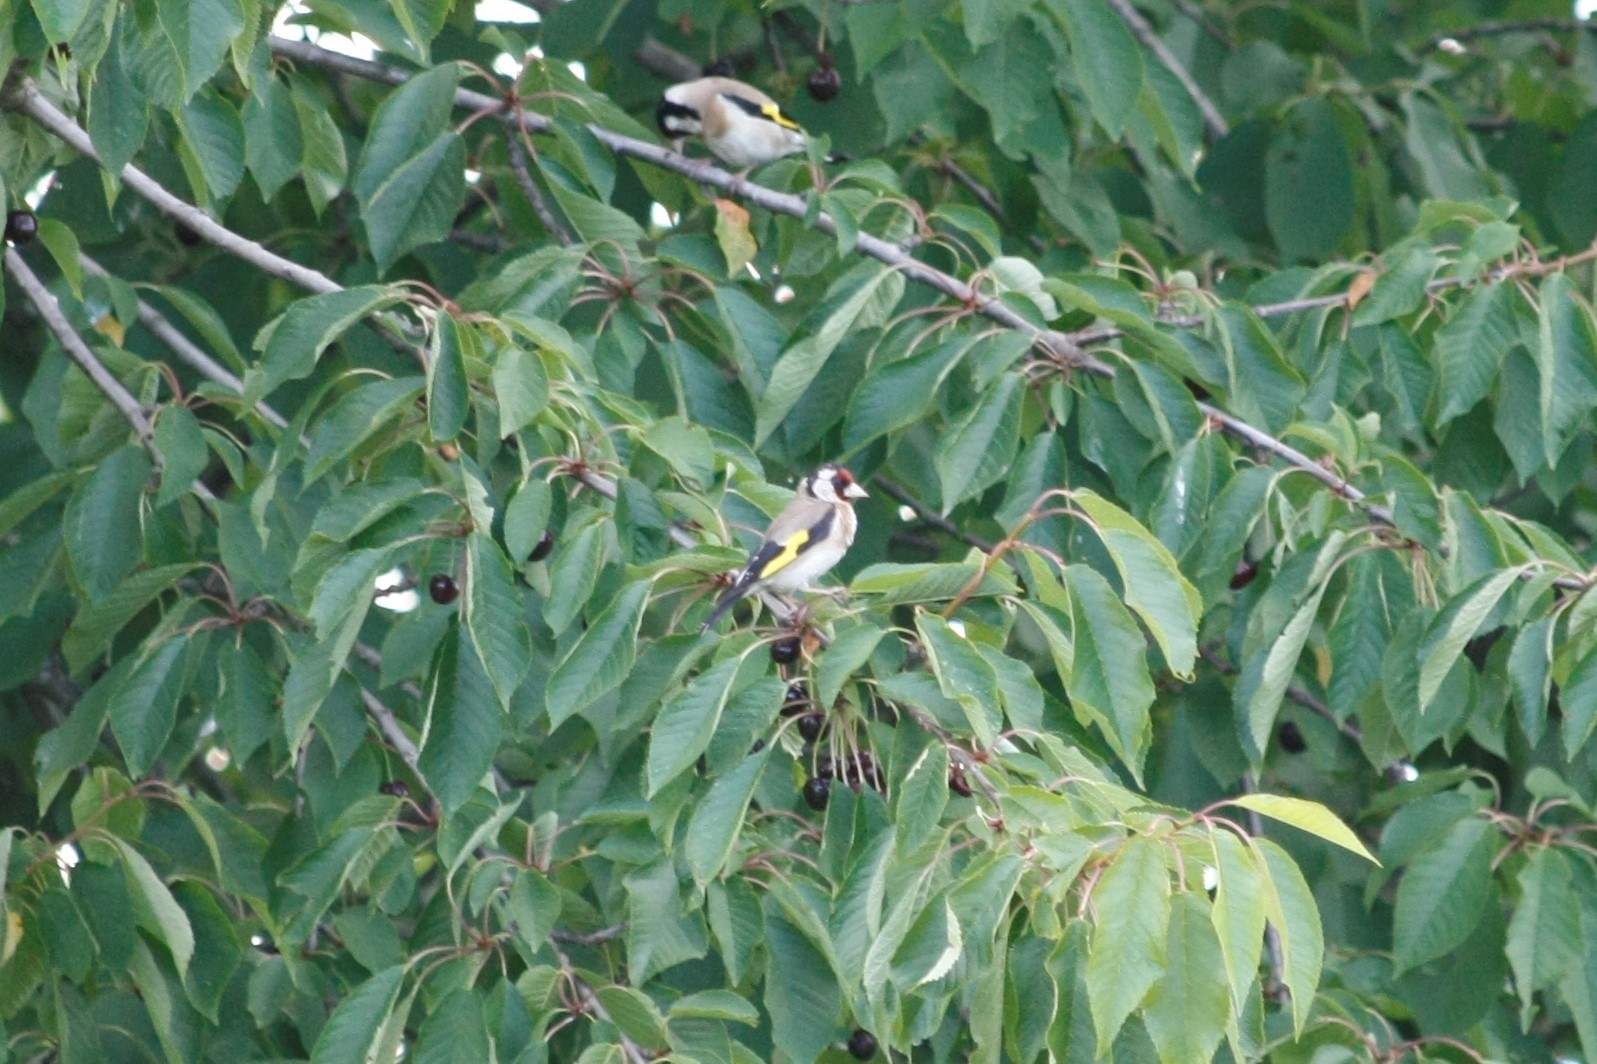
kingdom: Animalia
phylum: Chordata
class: Aves
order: Passeriformes
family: Fringillidae
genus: Carduelis
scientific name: Carduelis carduelis
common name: European goldfinch
